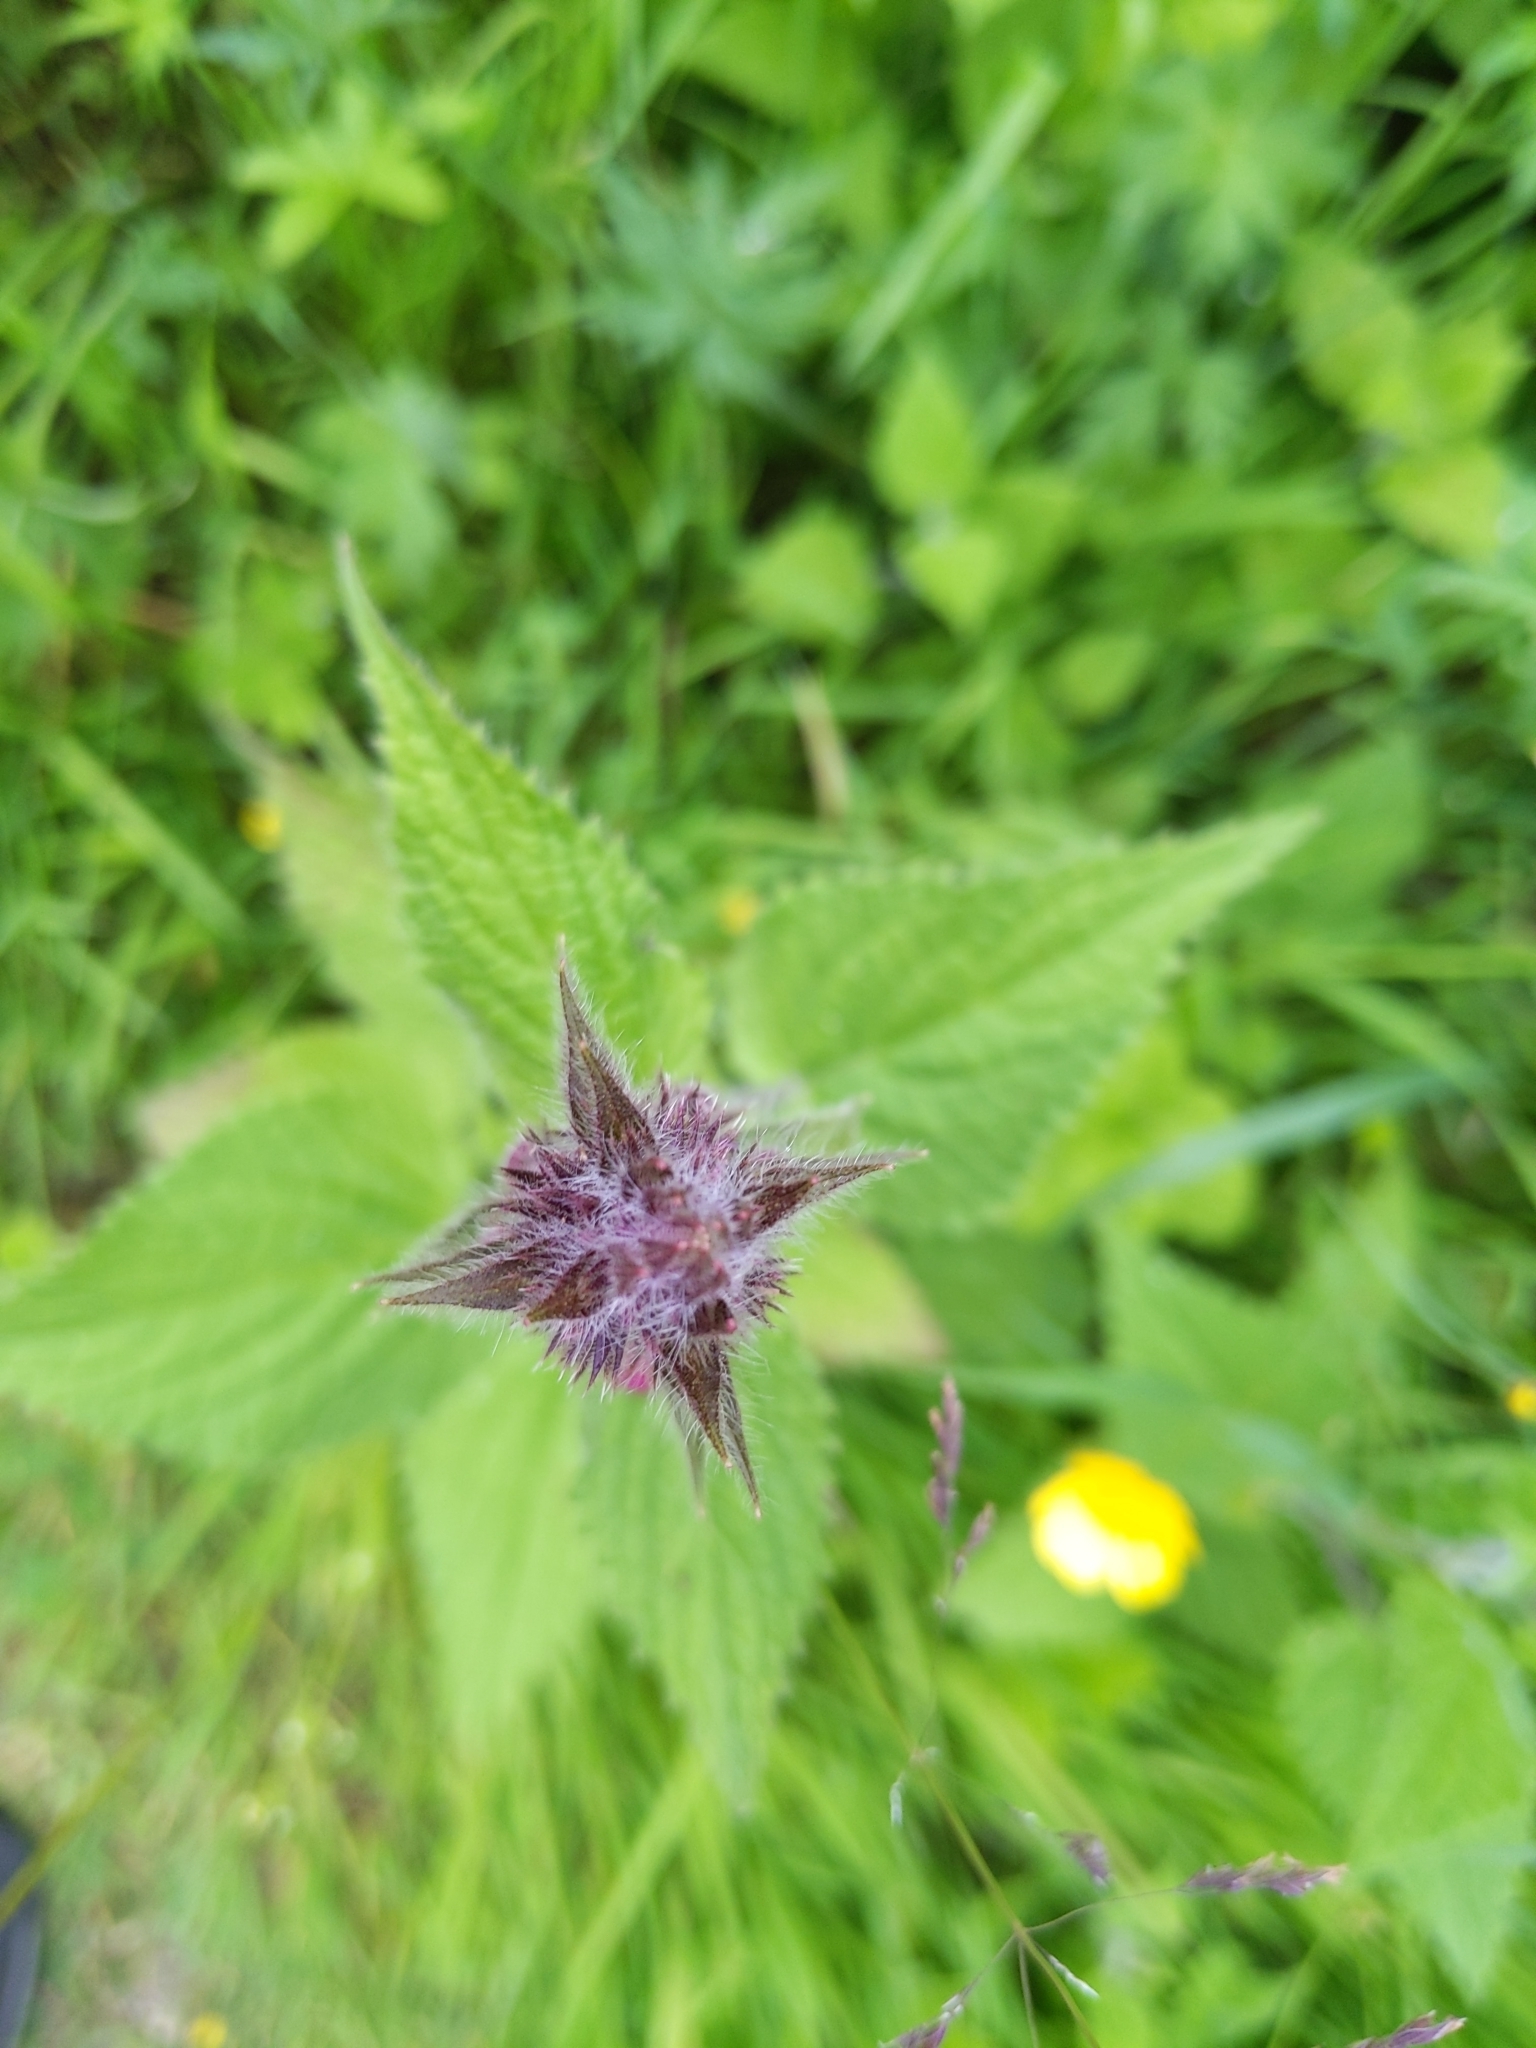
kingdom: Plantae
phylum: Tracheophyta
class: Magnoliopsida
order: Lamiales
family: Lamiaceae
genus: Stachys
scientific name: Stachys sylvatica
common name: Hedge woundwort
